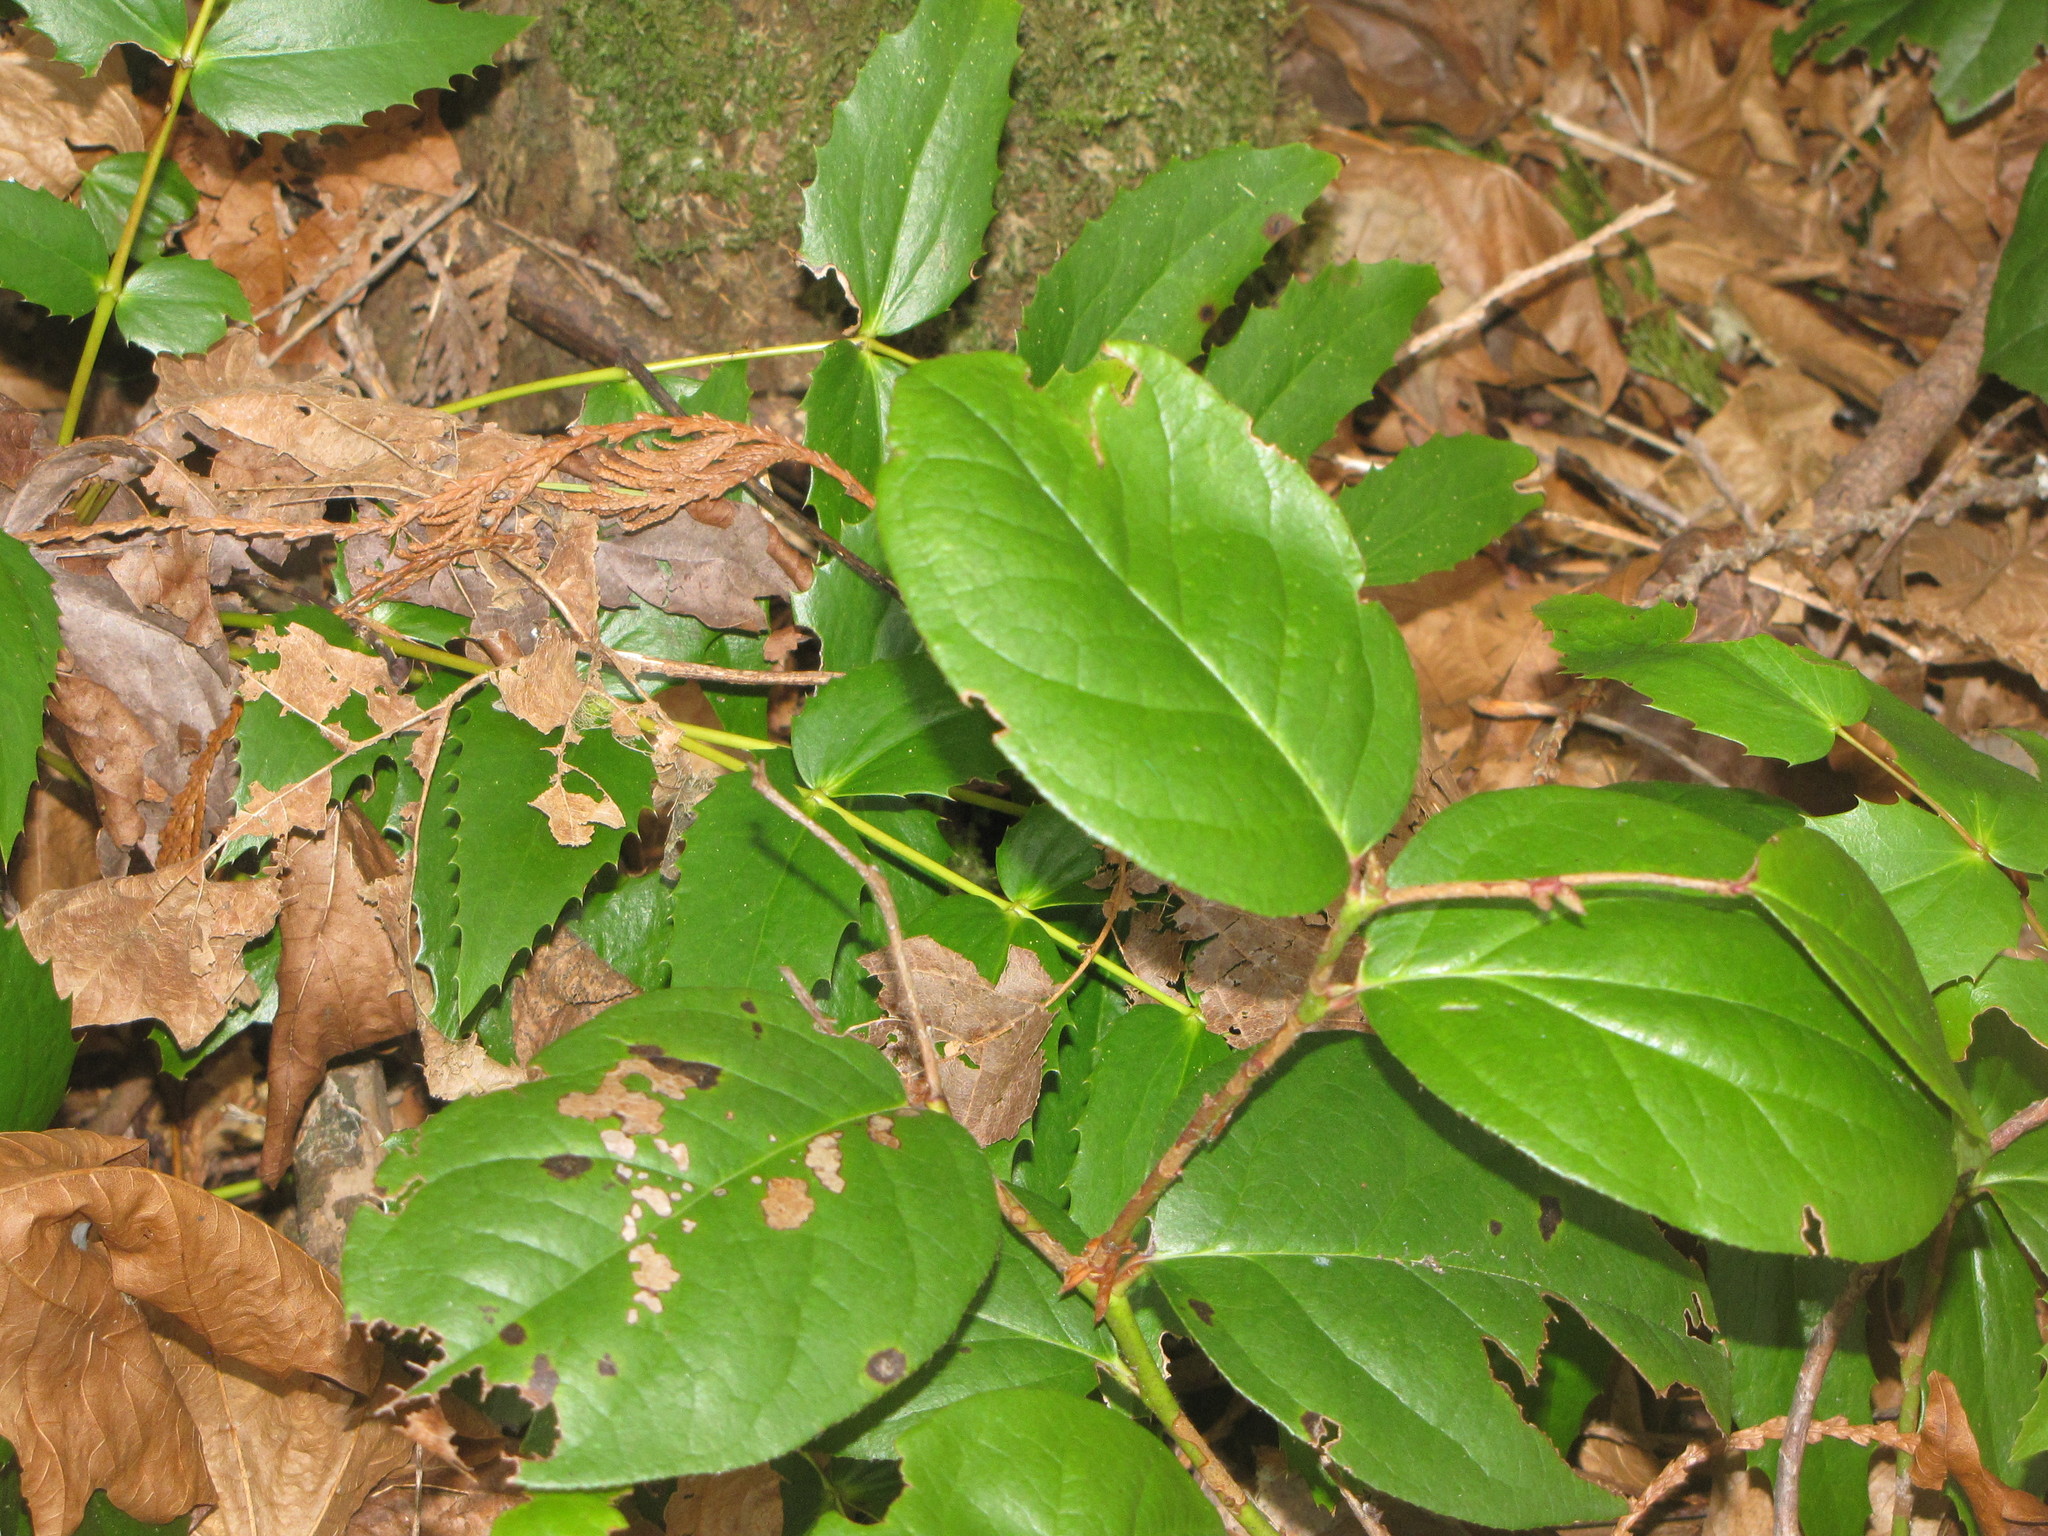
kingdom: Plantae
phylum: Tracheophyta
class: Magnoliopsida
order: Ericales
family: Ericaceae
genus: Gaultheria
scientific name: Gaultheria shallon
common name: Shallon
